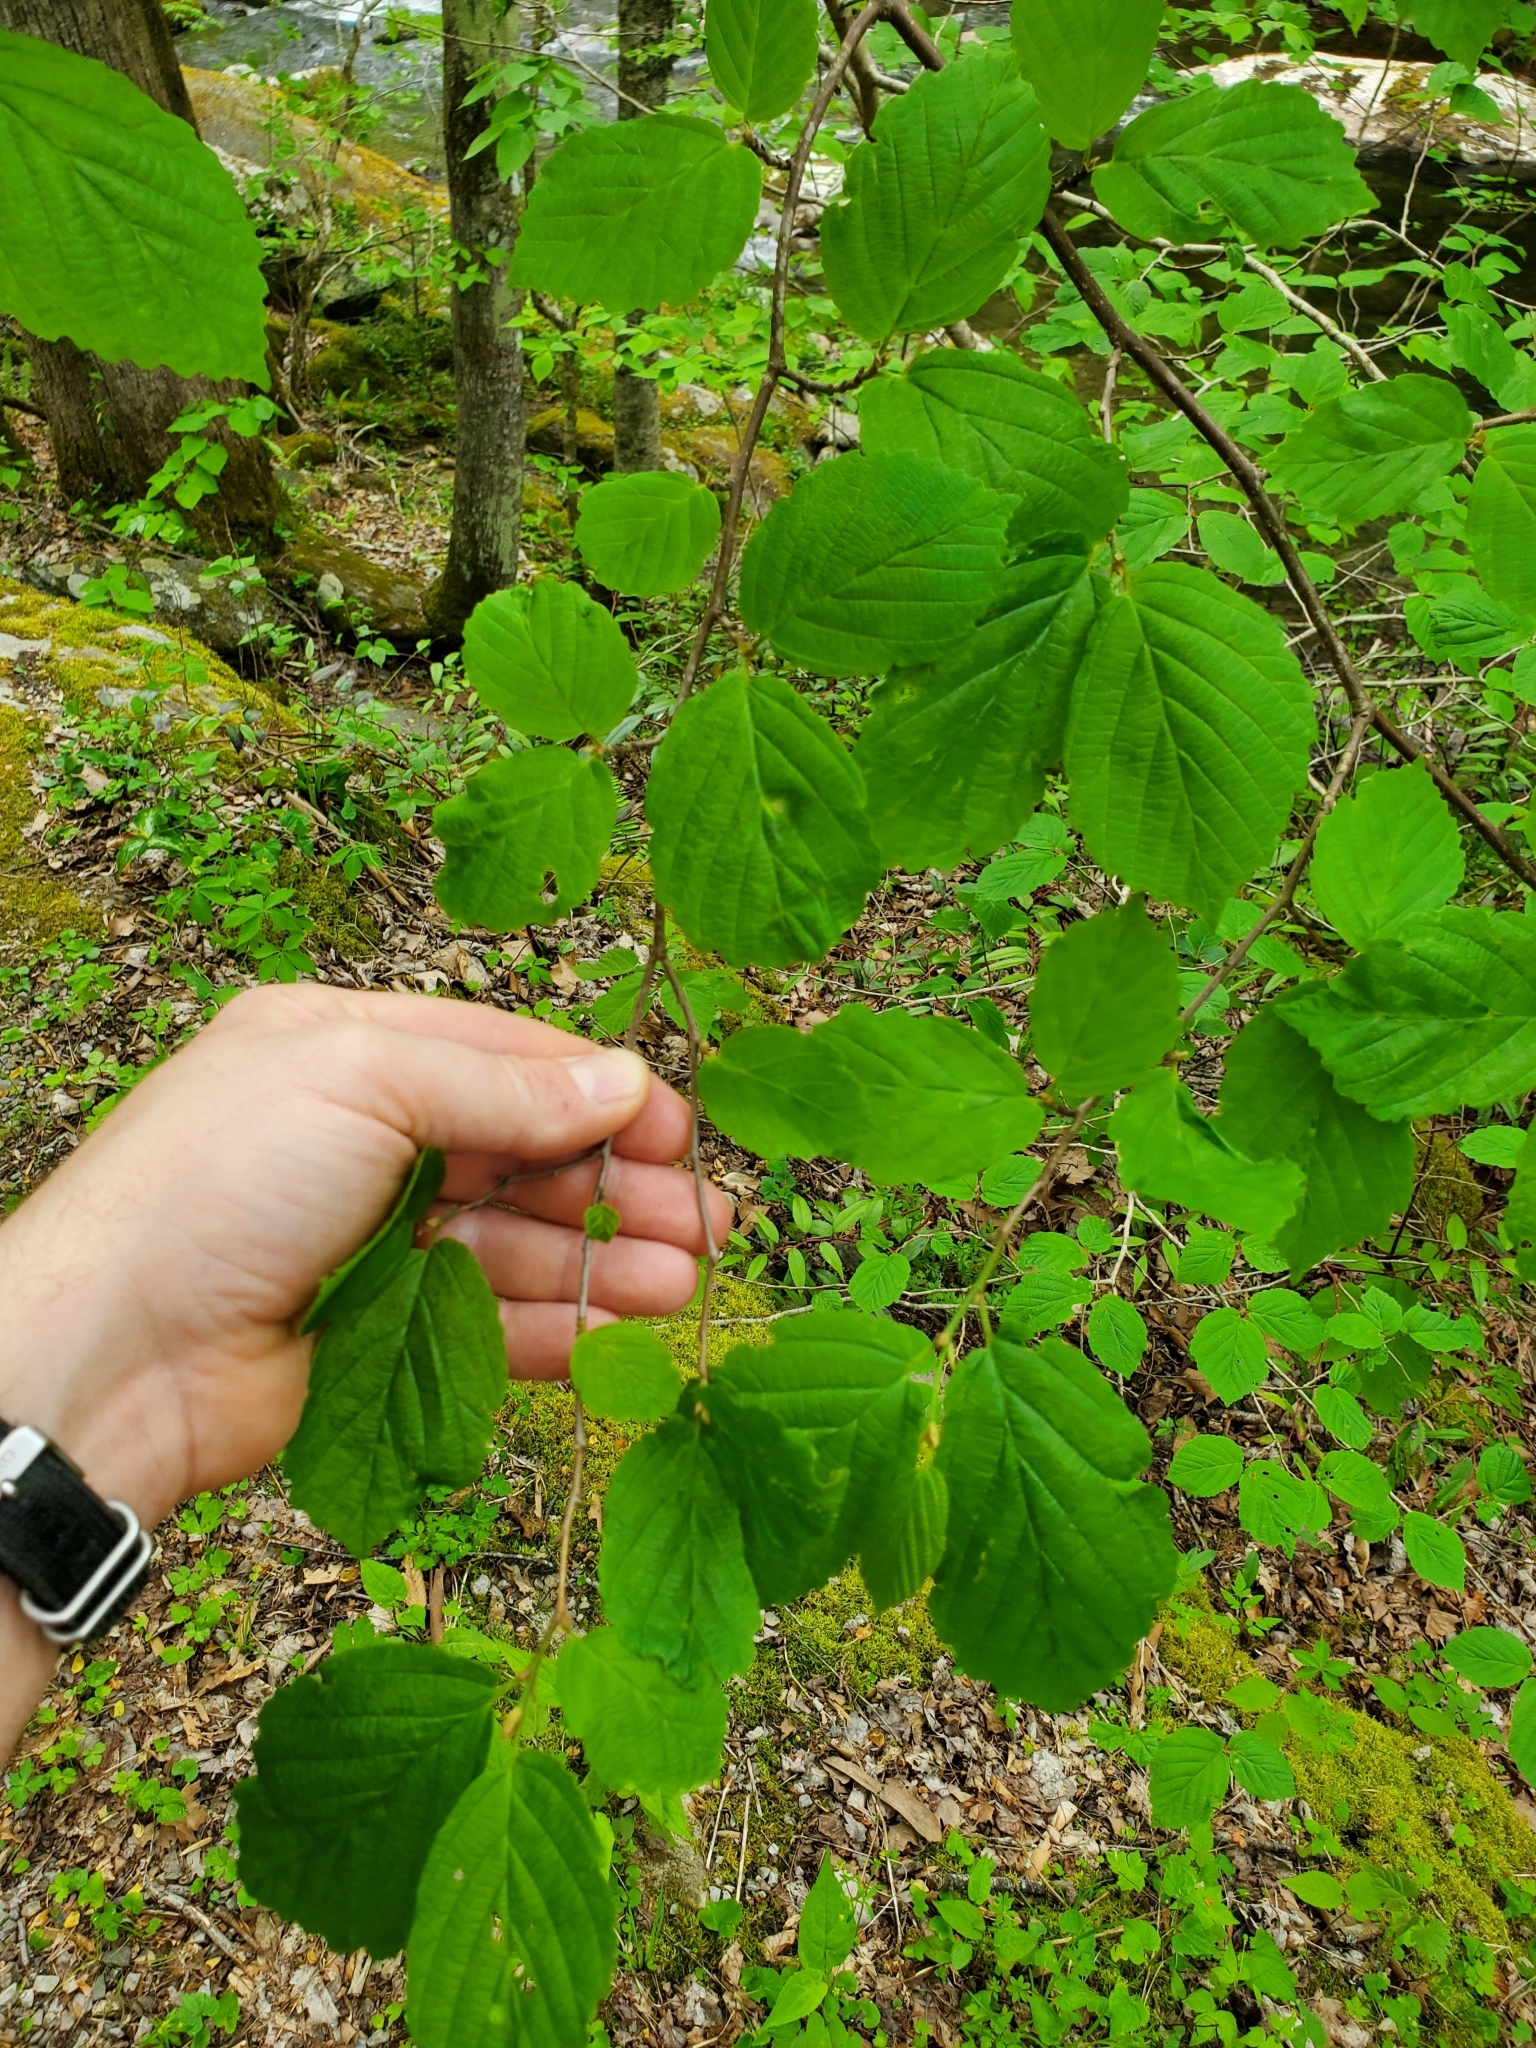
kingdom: Animalia
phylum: Arthropoda
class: Insecta
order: Hemiptera
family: Aphididae
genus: Hormaphis
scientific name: Hormaphis hamamelidis
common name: Witch-hazel cone gall aphid
